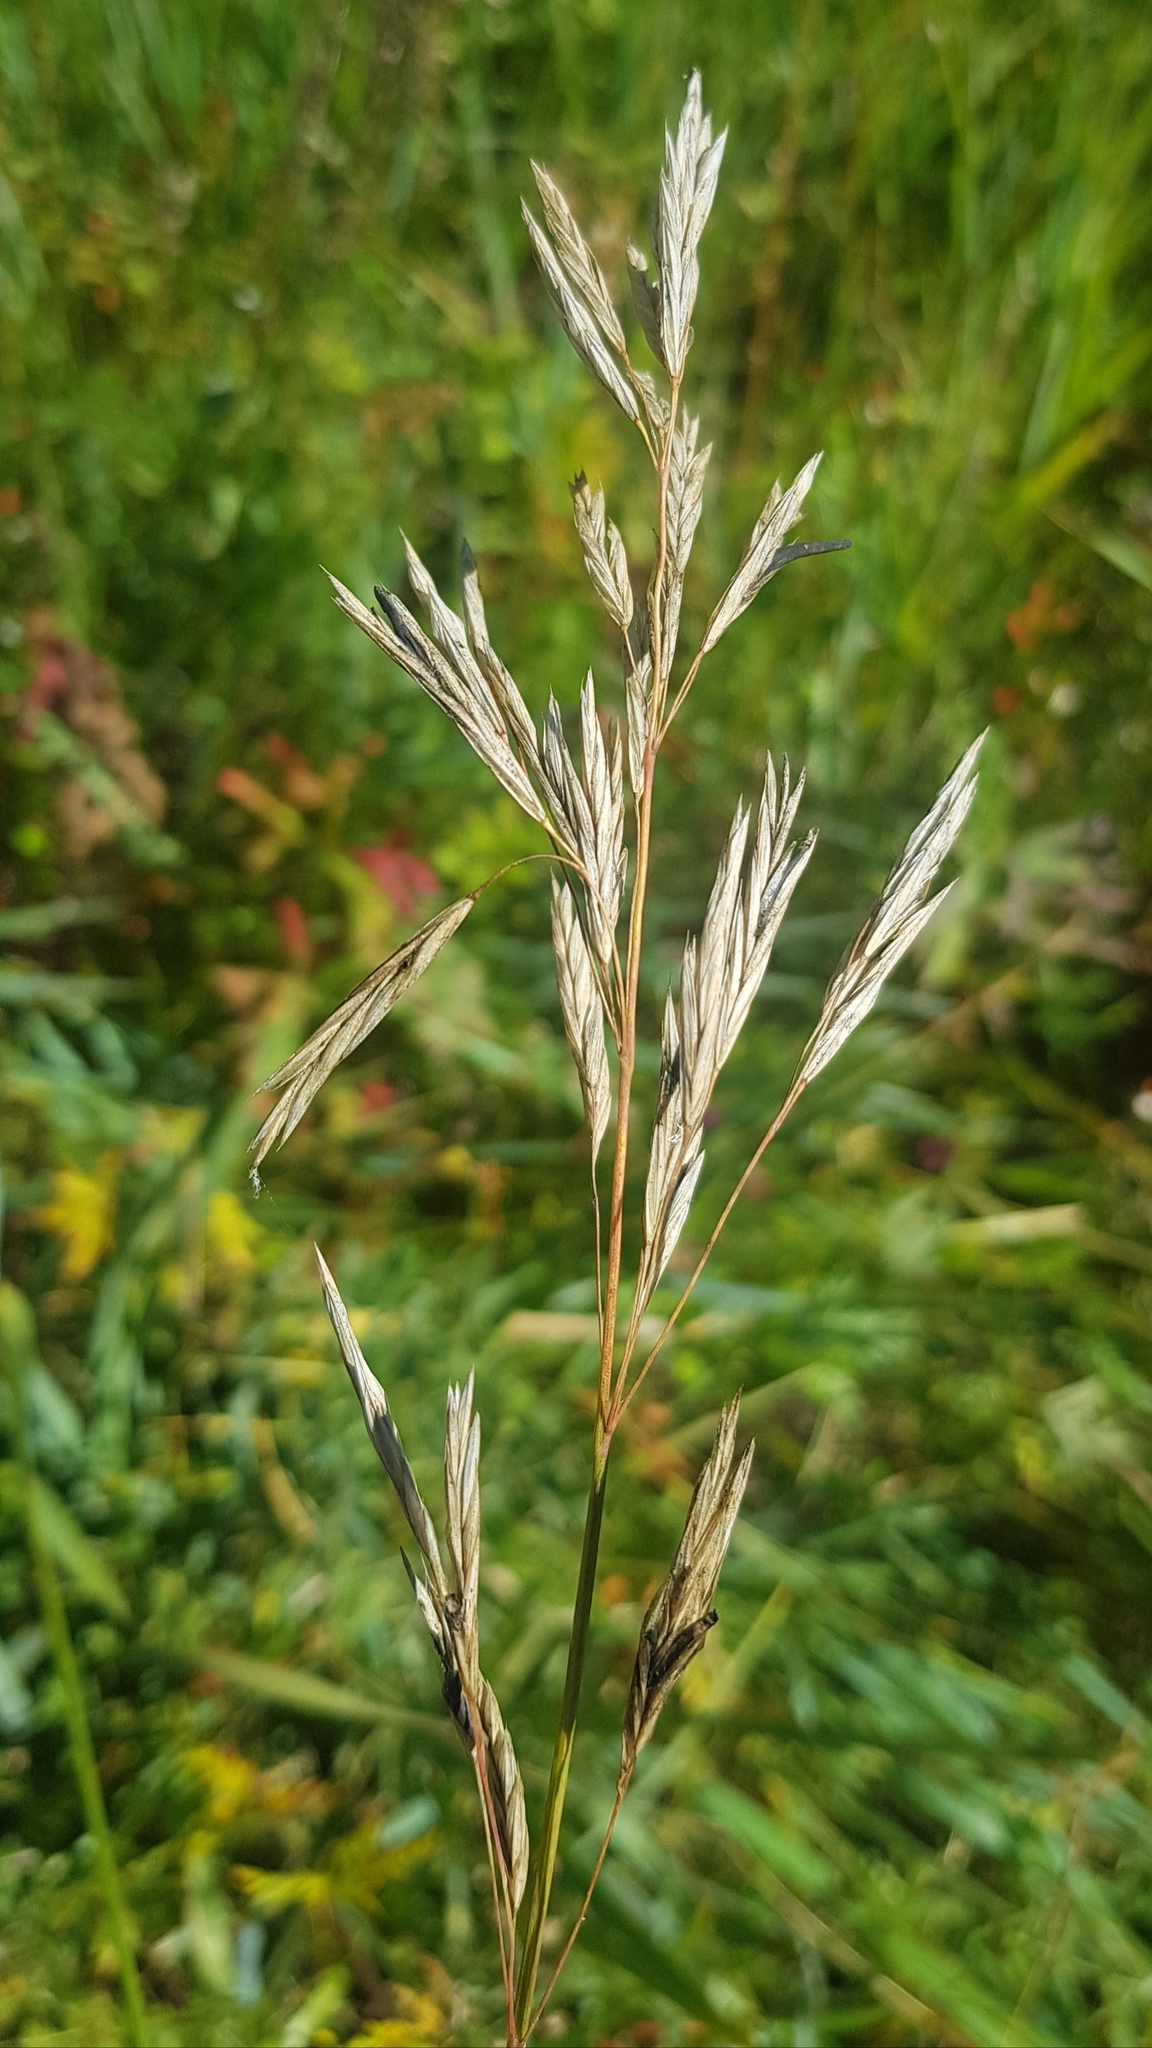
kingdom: Plantae
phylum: Tracheophyta
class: Liliopsida
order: Poales
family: Poaceae
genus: Bromus
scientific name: Bromus inermis
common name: Smooth brome
